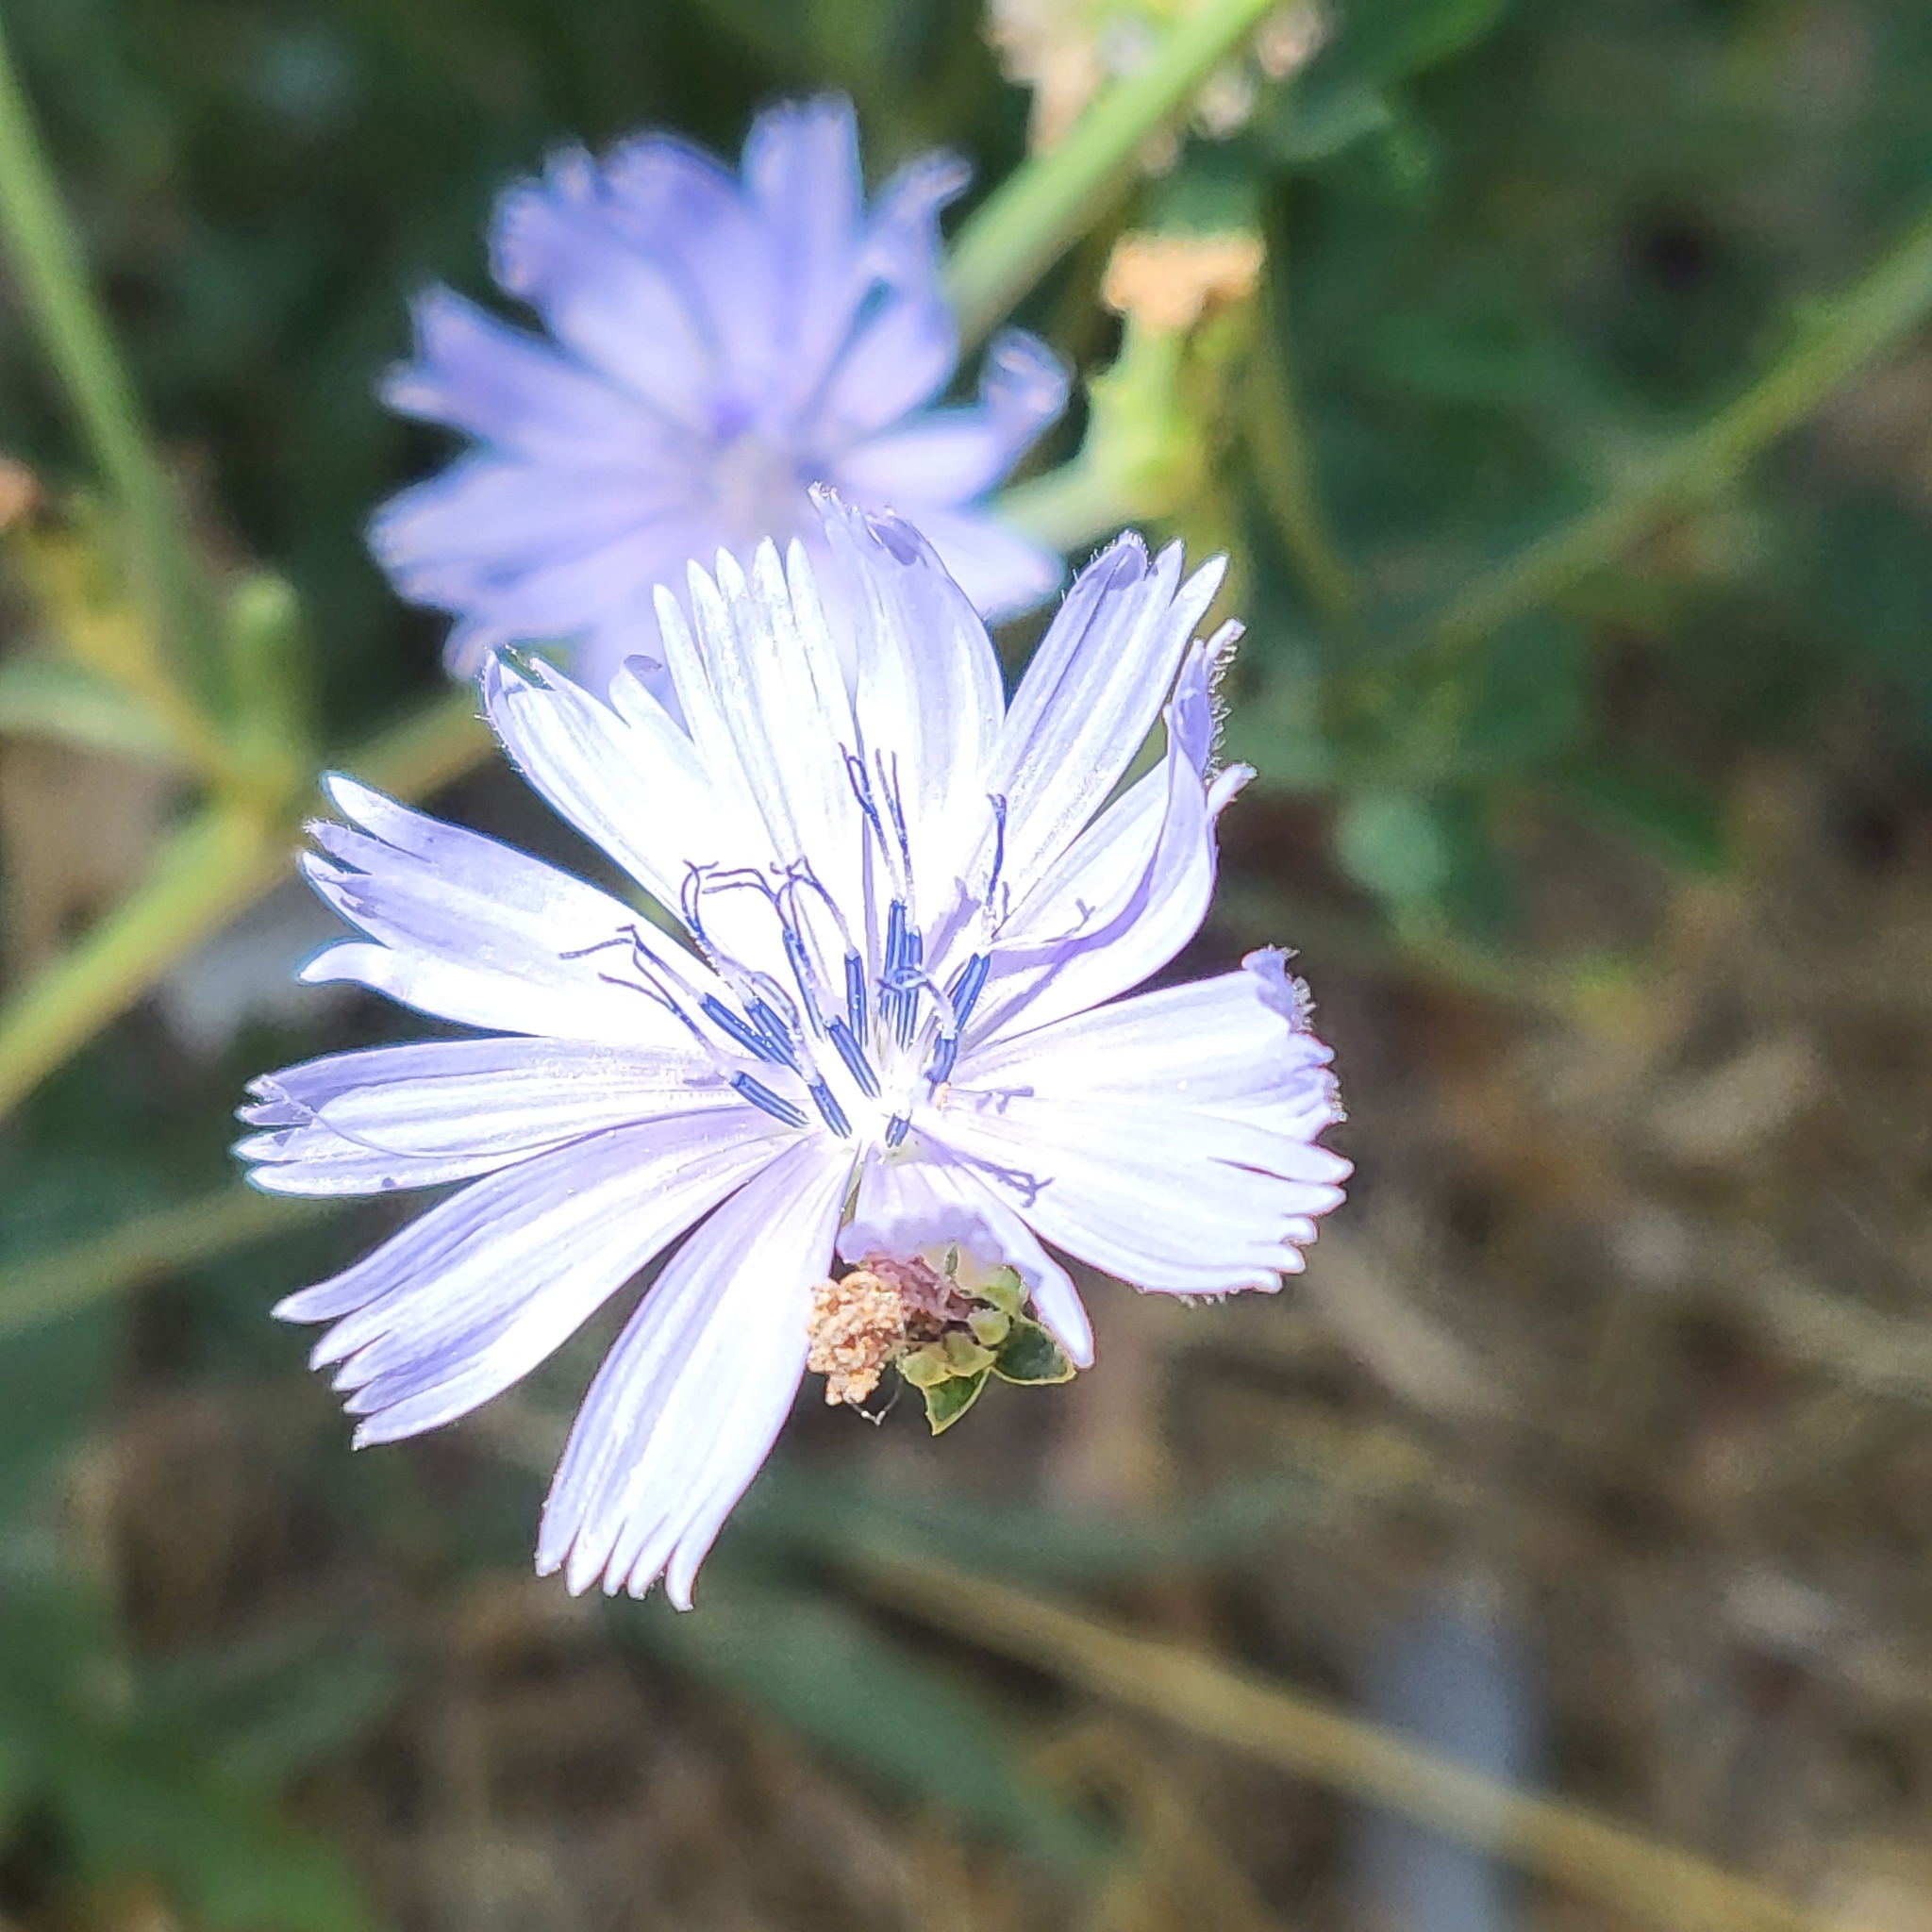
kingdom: Plantae
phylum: Tracheophyta
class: Magnoliopsida
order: Asterales
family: Asteraceae
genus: Cichorium
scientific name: Cichorium intybus
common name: Chicory
